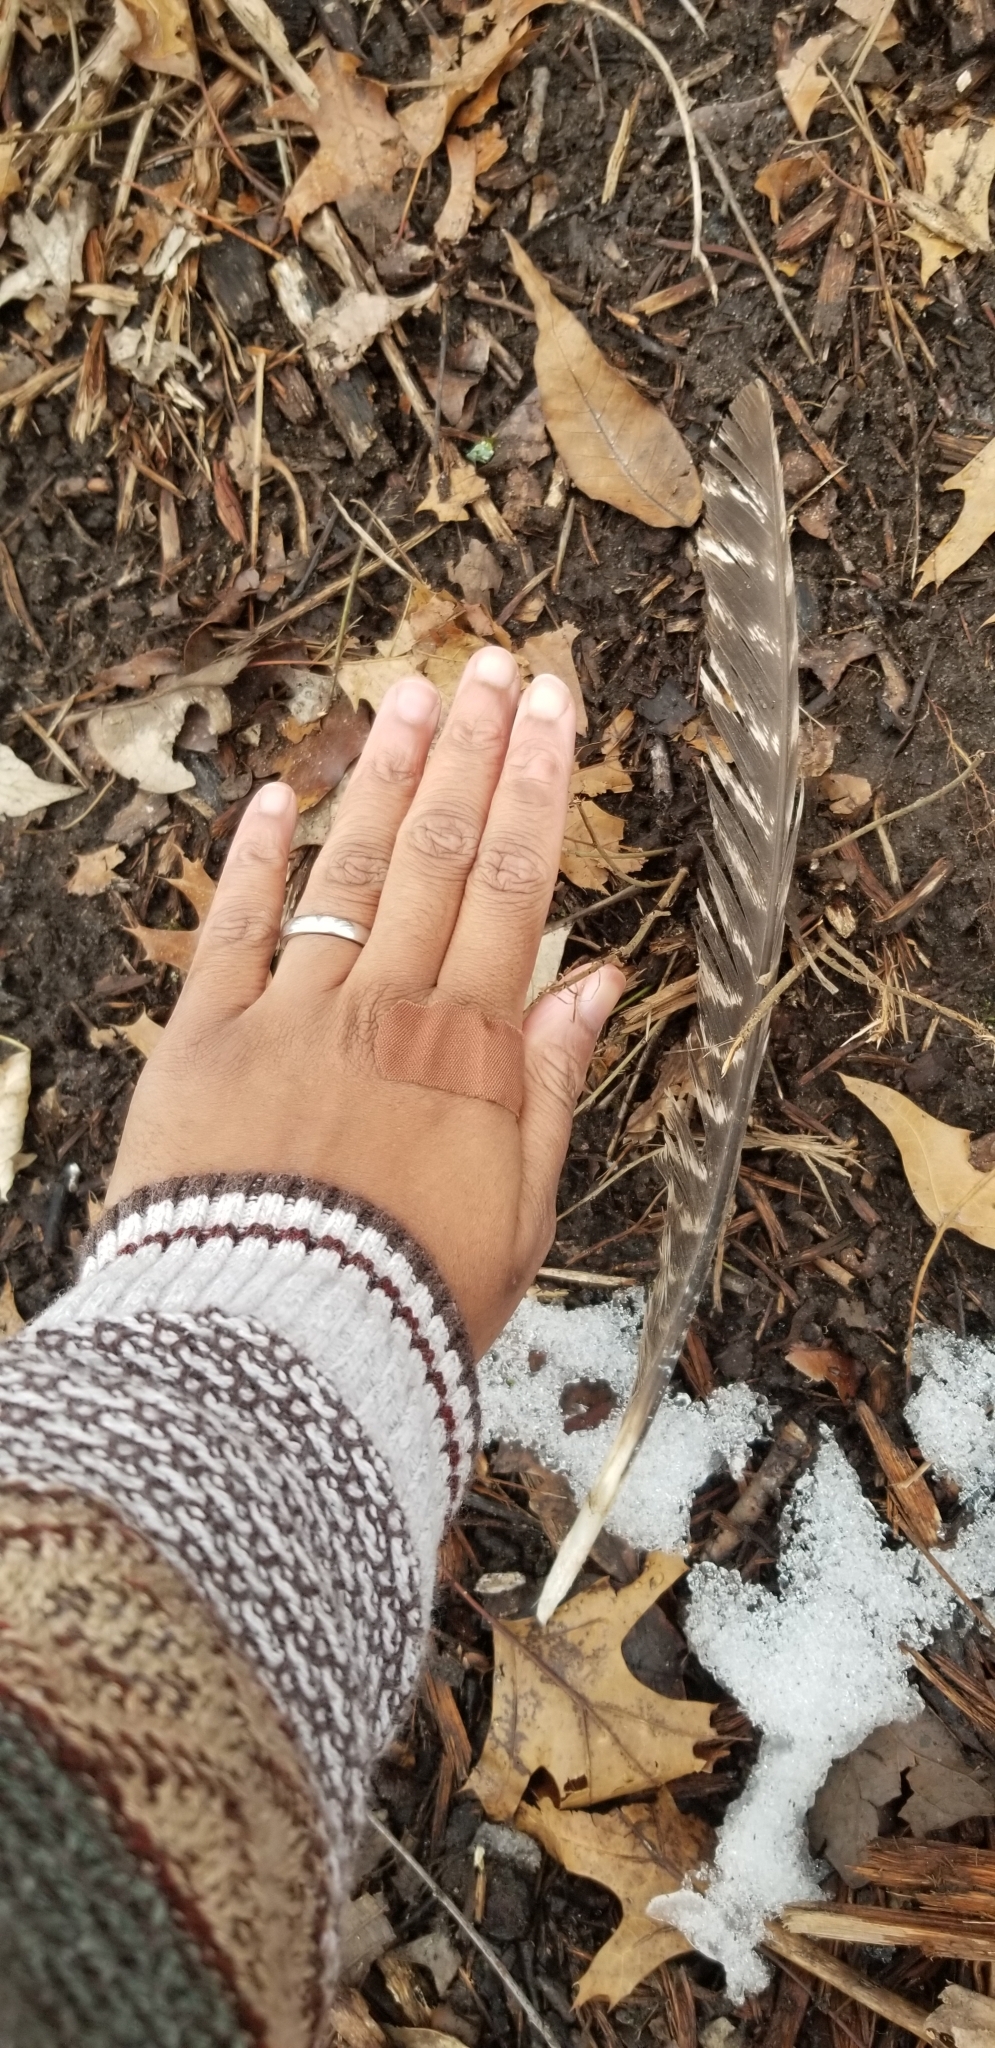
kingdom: Animalia
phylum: Chordata
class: Aves
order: Galliformes
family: Phasianidae
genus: Meleagris
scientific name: Meleagris gallopavo
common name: Wild turkey
